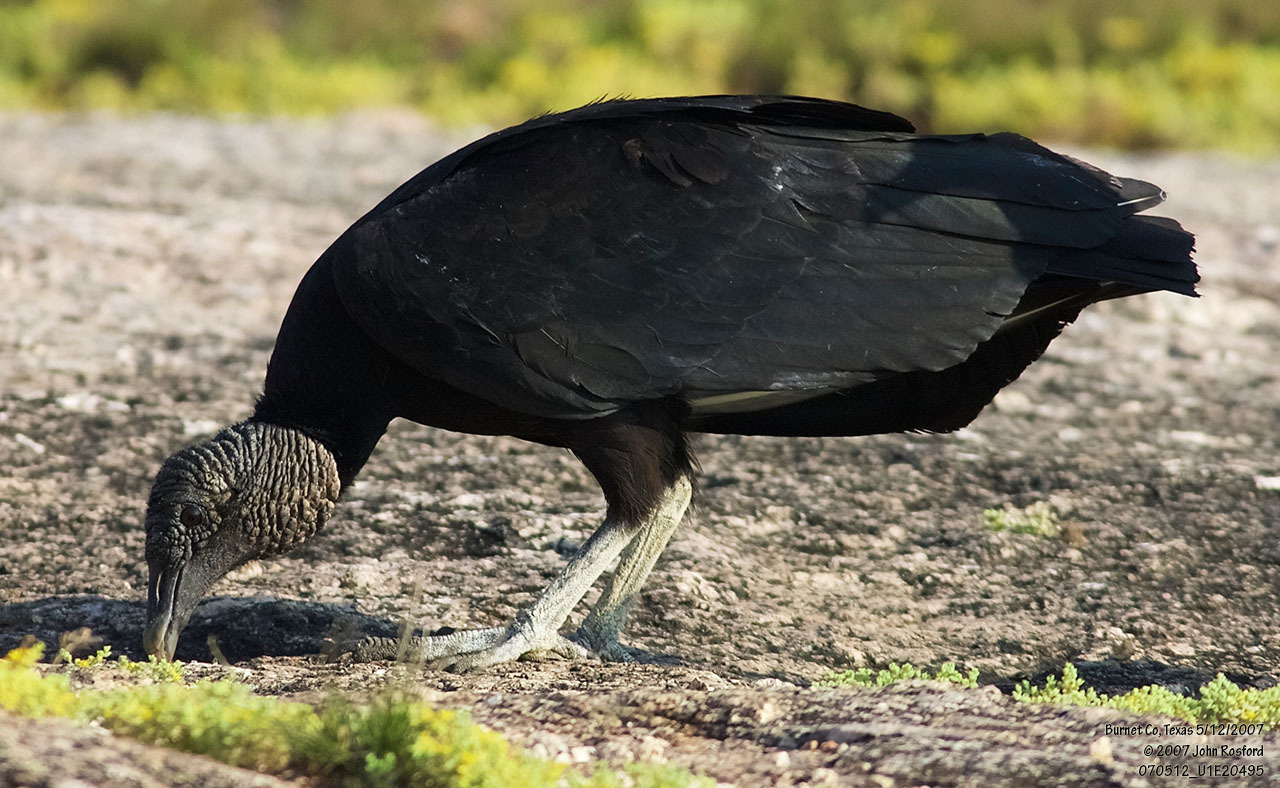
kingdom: Animalia
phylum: Chordata
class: Aves
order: Accipitriformes
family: Cathartidae
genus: Coragyps
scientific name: Coragyps atratus
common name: Black vulture
